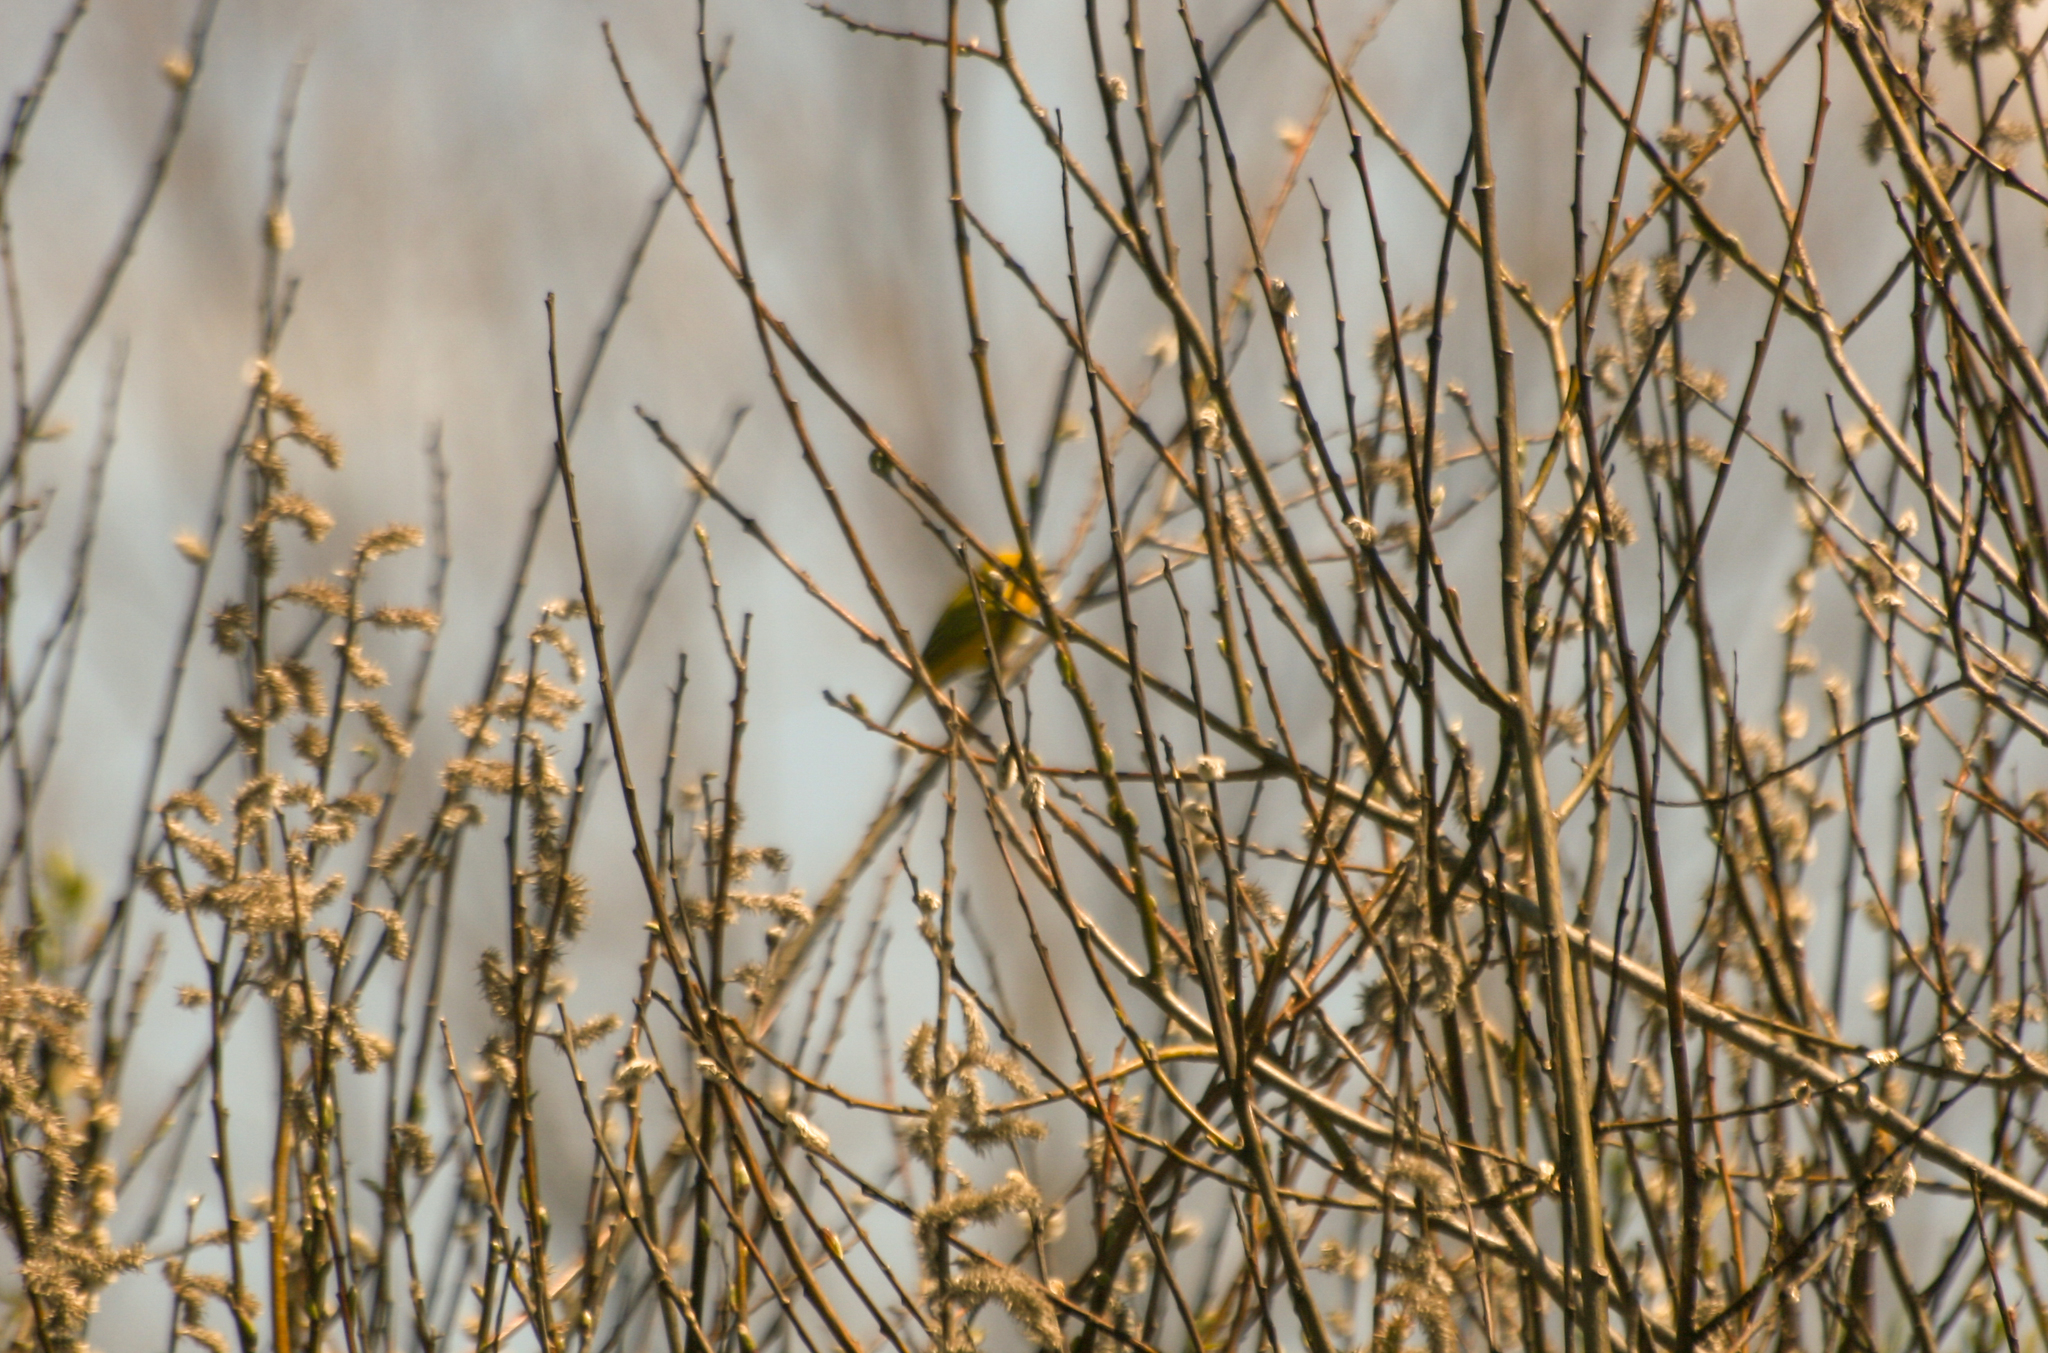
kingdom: Animalia
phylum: Chordata
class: Aves
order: Passeriformes
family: Parulidae
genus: Setophaga
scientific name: Setophaga petechia
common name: Yellow warbler
